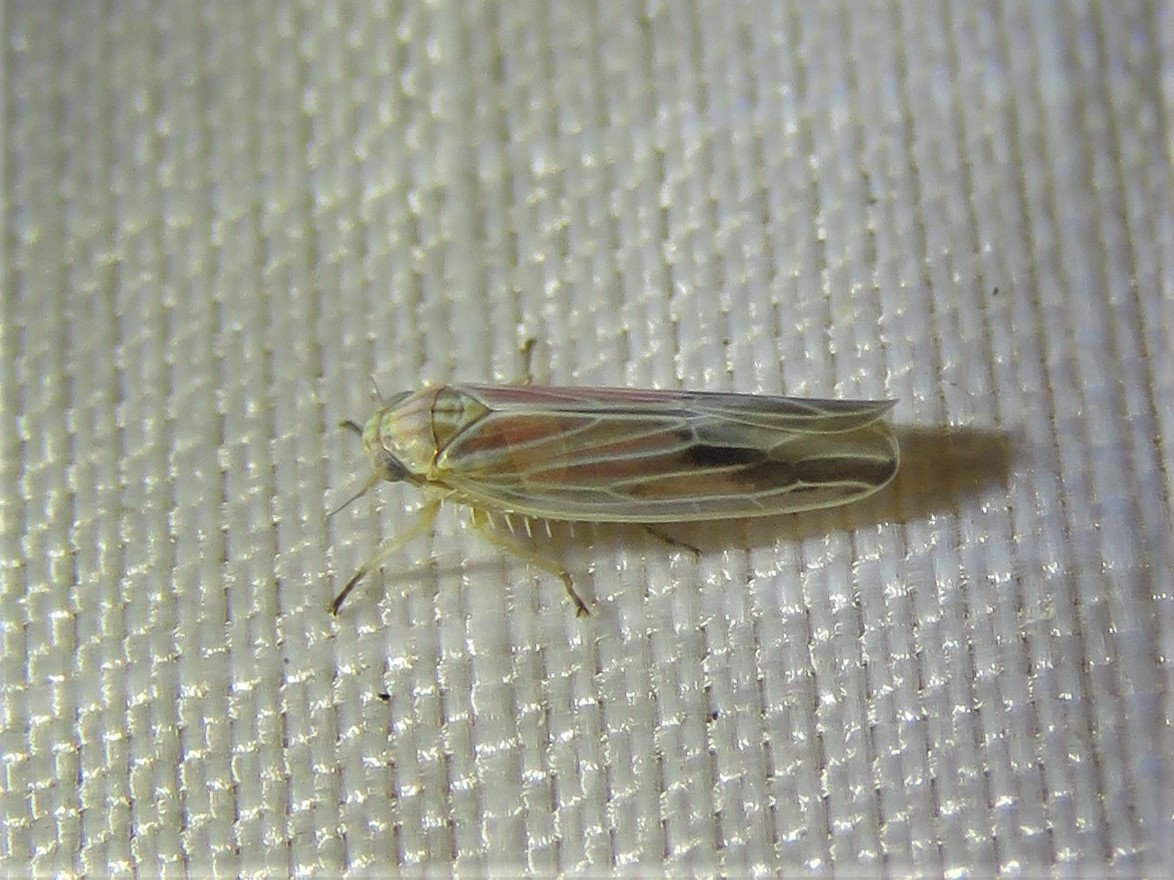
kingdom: Animalia
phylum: Arthropoda
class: Insecta
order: Hemiptera
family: Cicadellidae
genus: Balclutha
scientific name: Balclutha rubrostriata
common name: Red-streaked leafhopper
